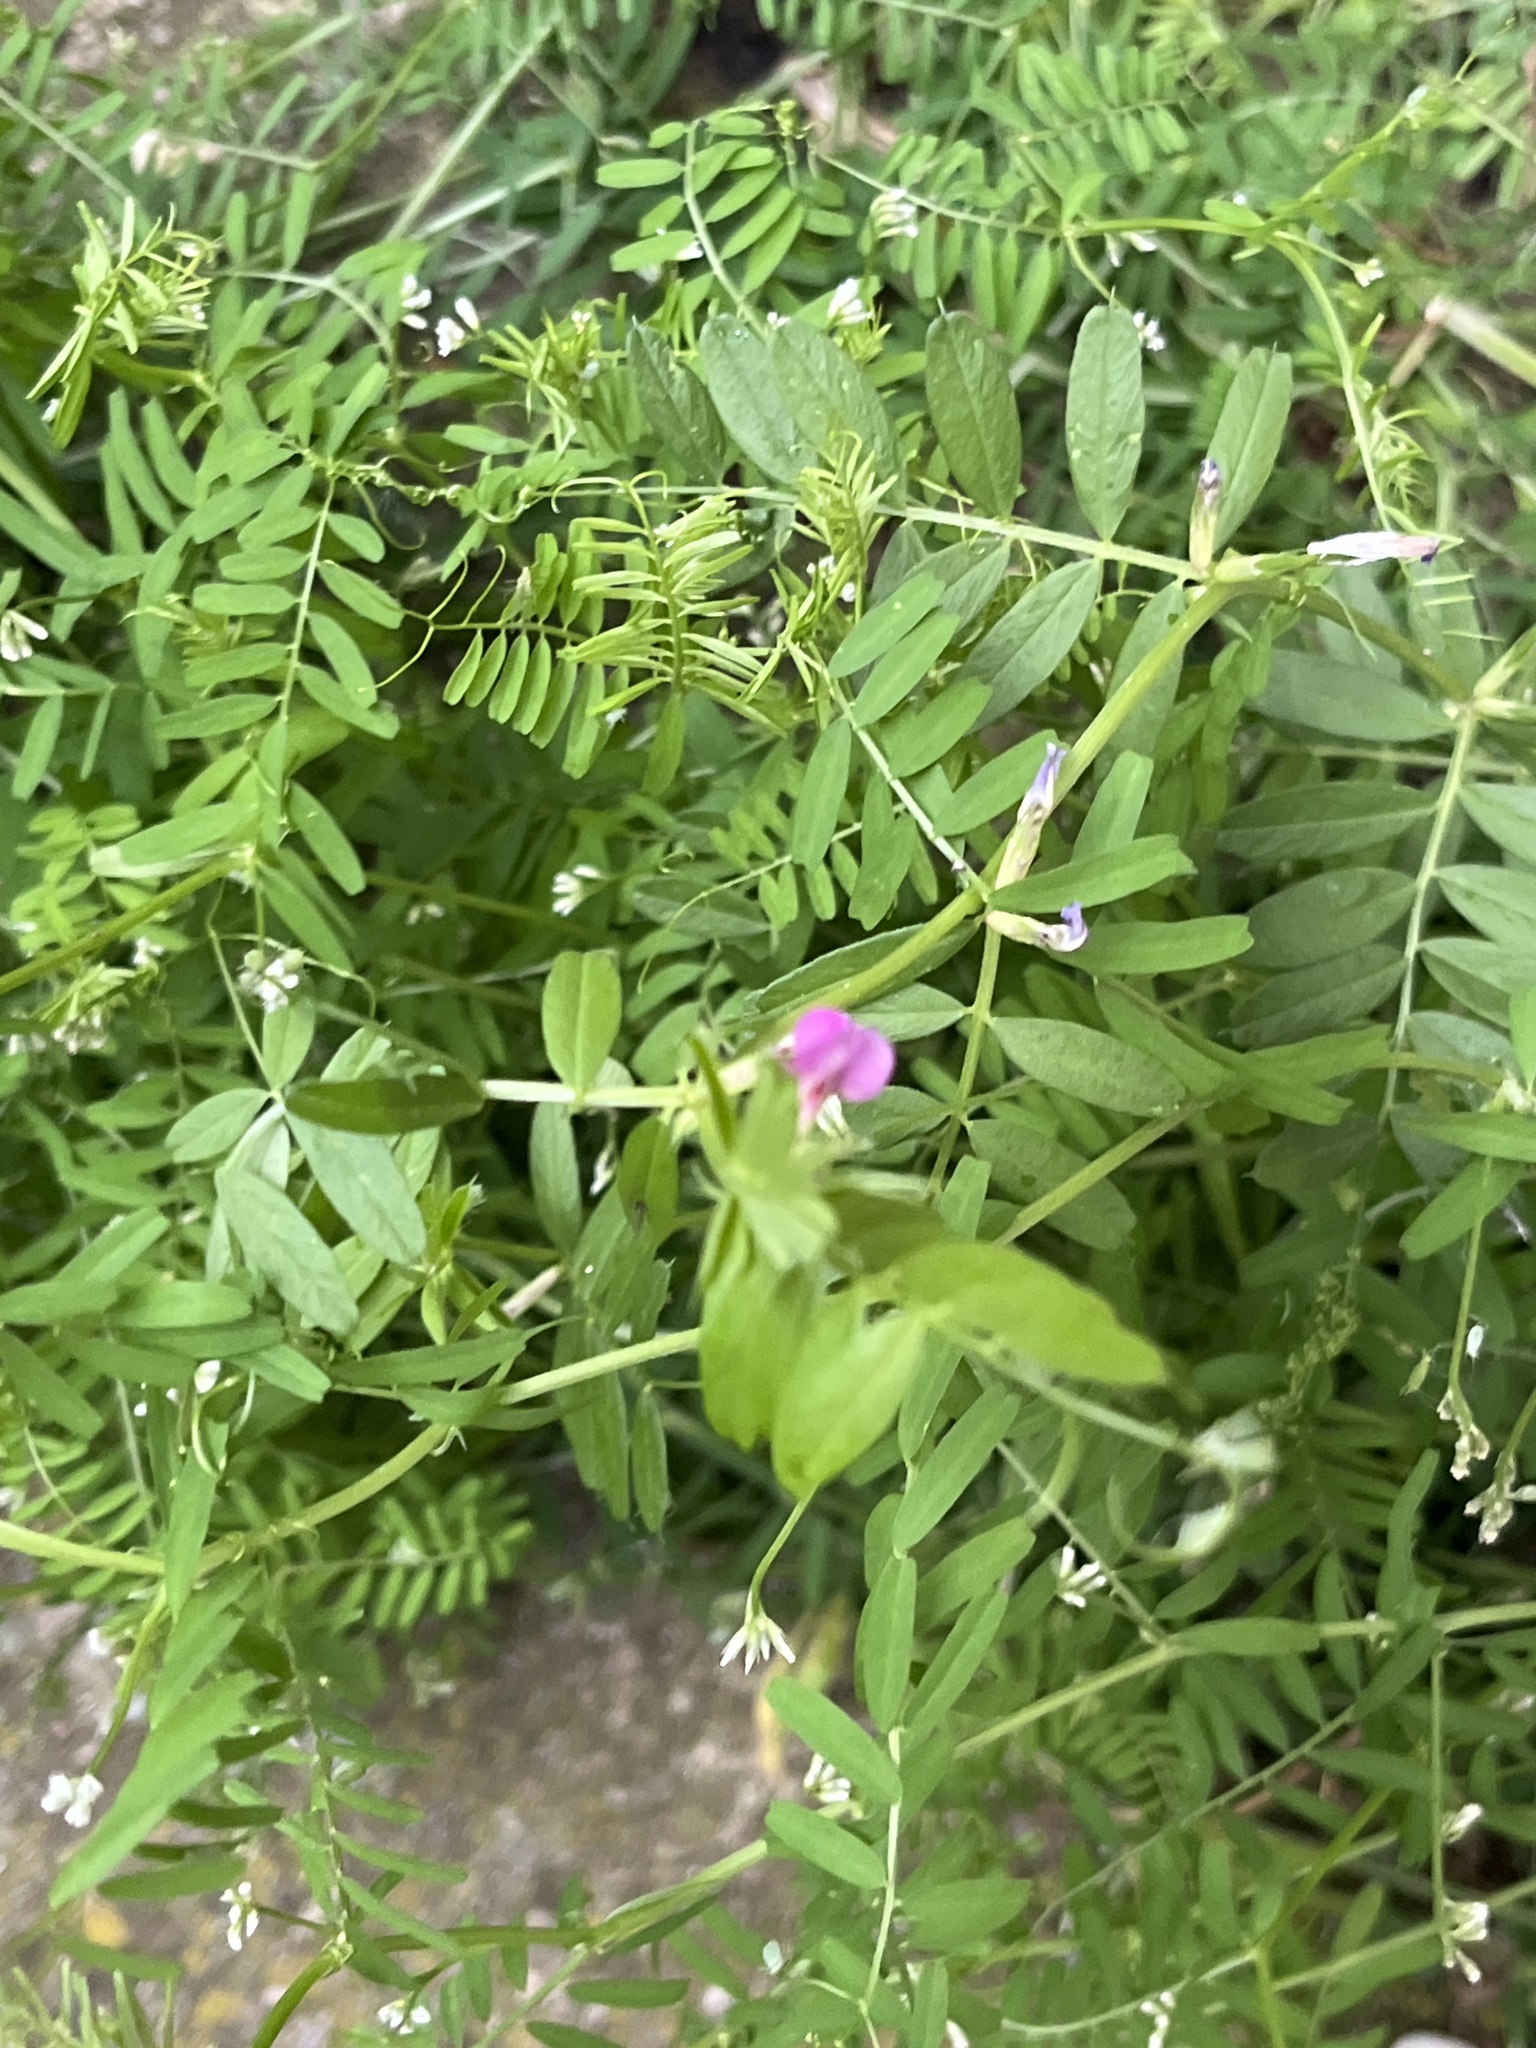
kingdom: Plantae
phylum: Tracheophyta
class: Magnoliopsida
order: Fabales
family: Fabaceae
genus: Vicia
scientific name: Vicia sativa
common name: Garden vetch
